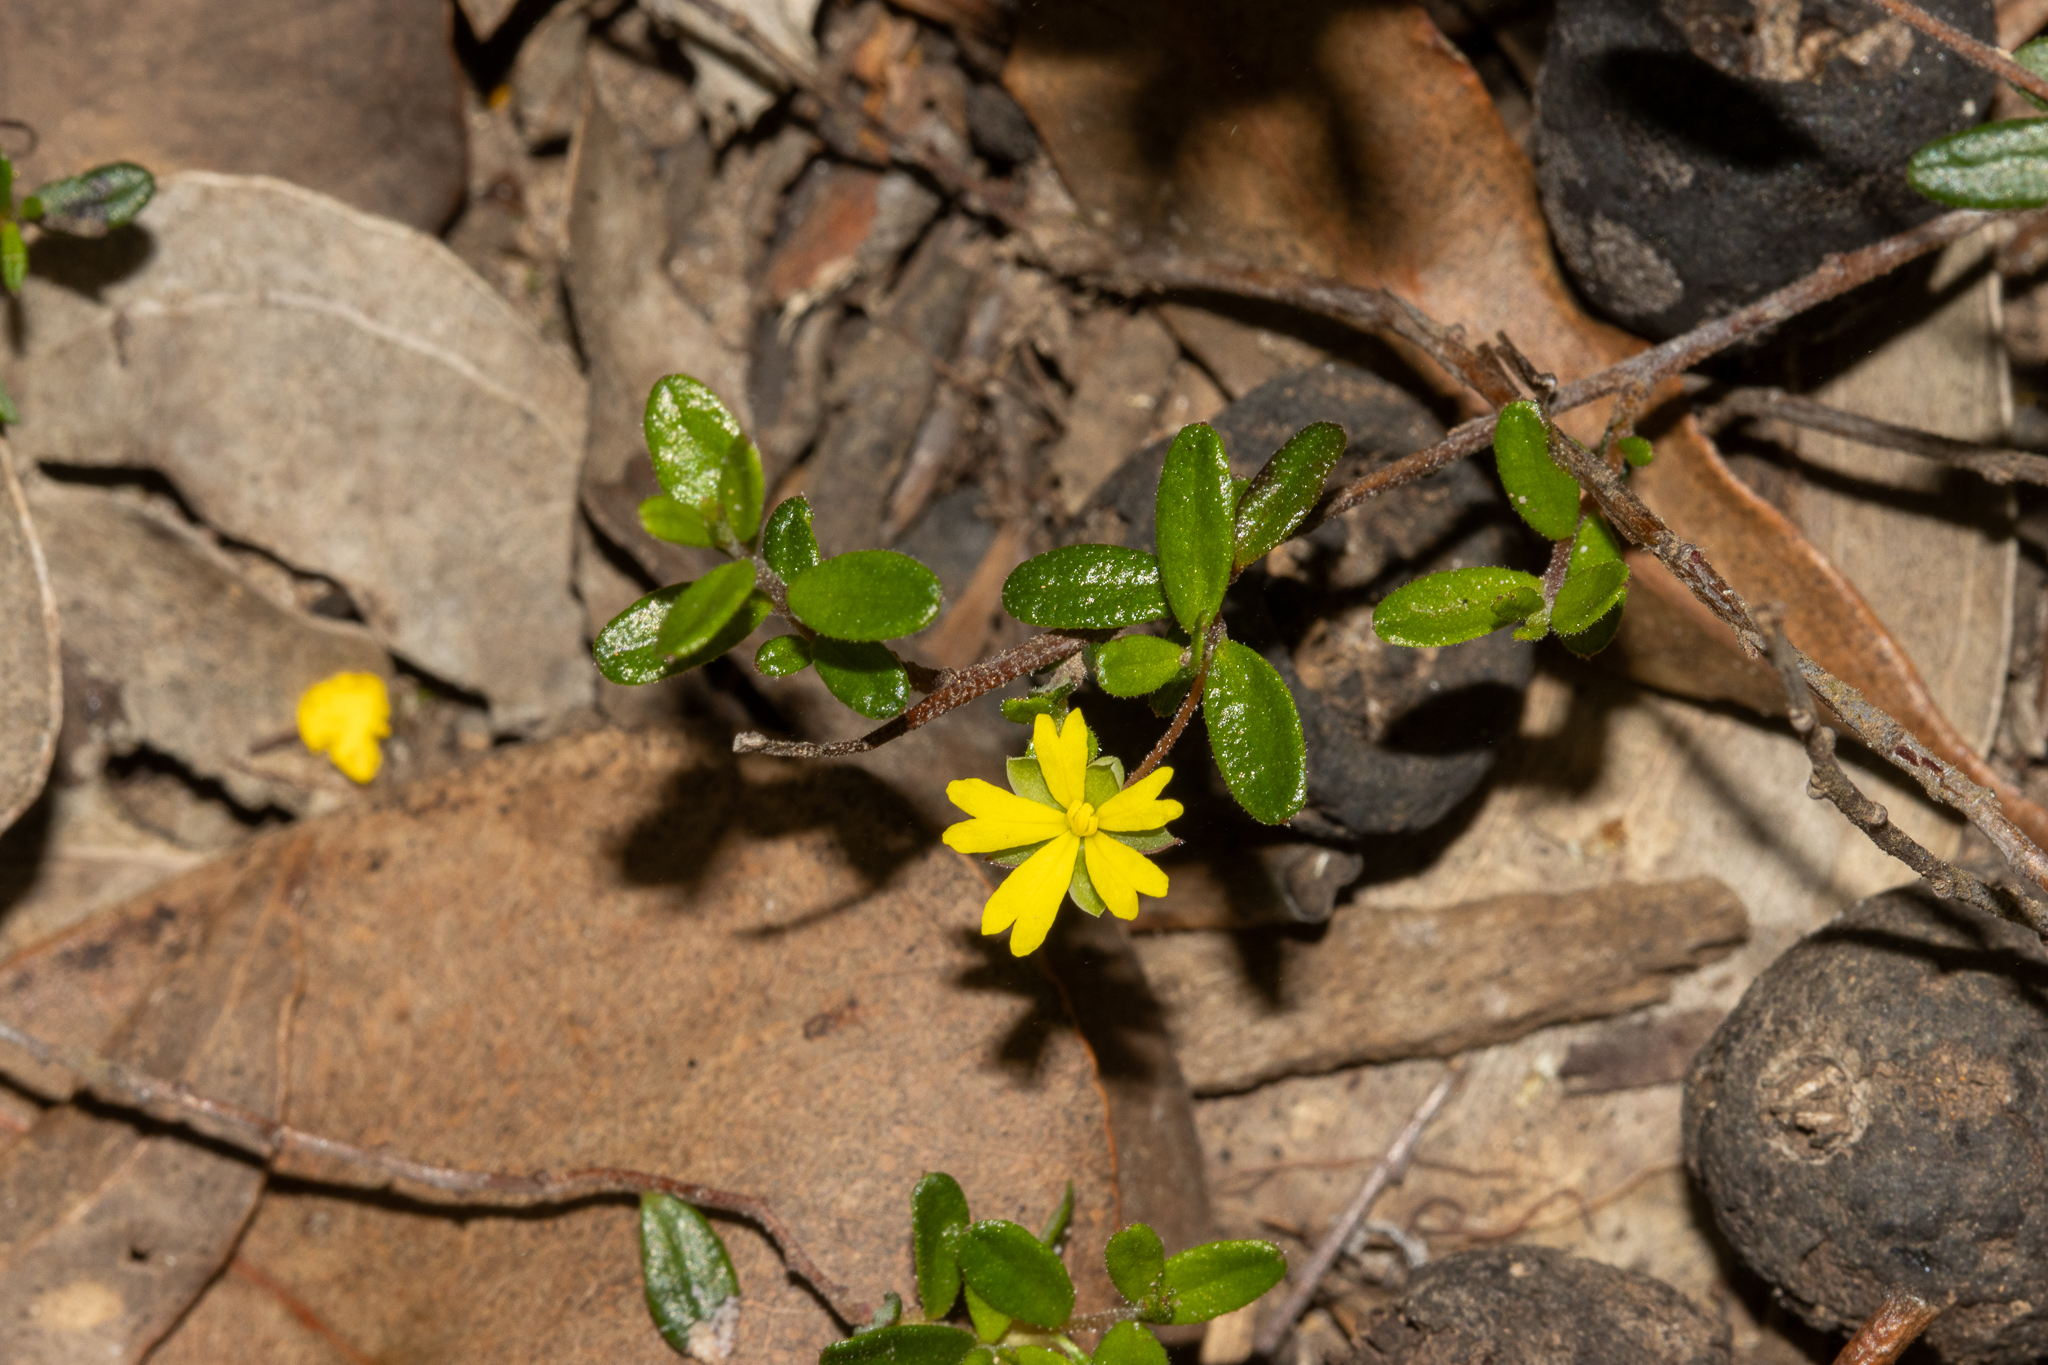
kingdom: Plantae
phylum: Tracheophyta
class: Magnoliopsida
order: Dilleniales
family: Dilleniaceae
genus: Hibbertia
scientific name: Hibbertia
